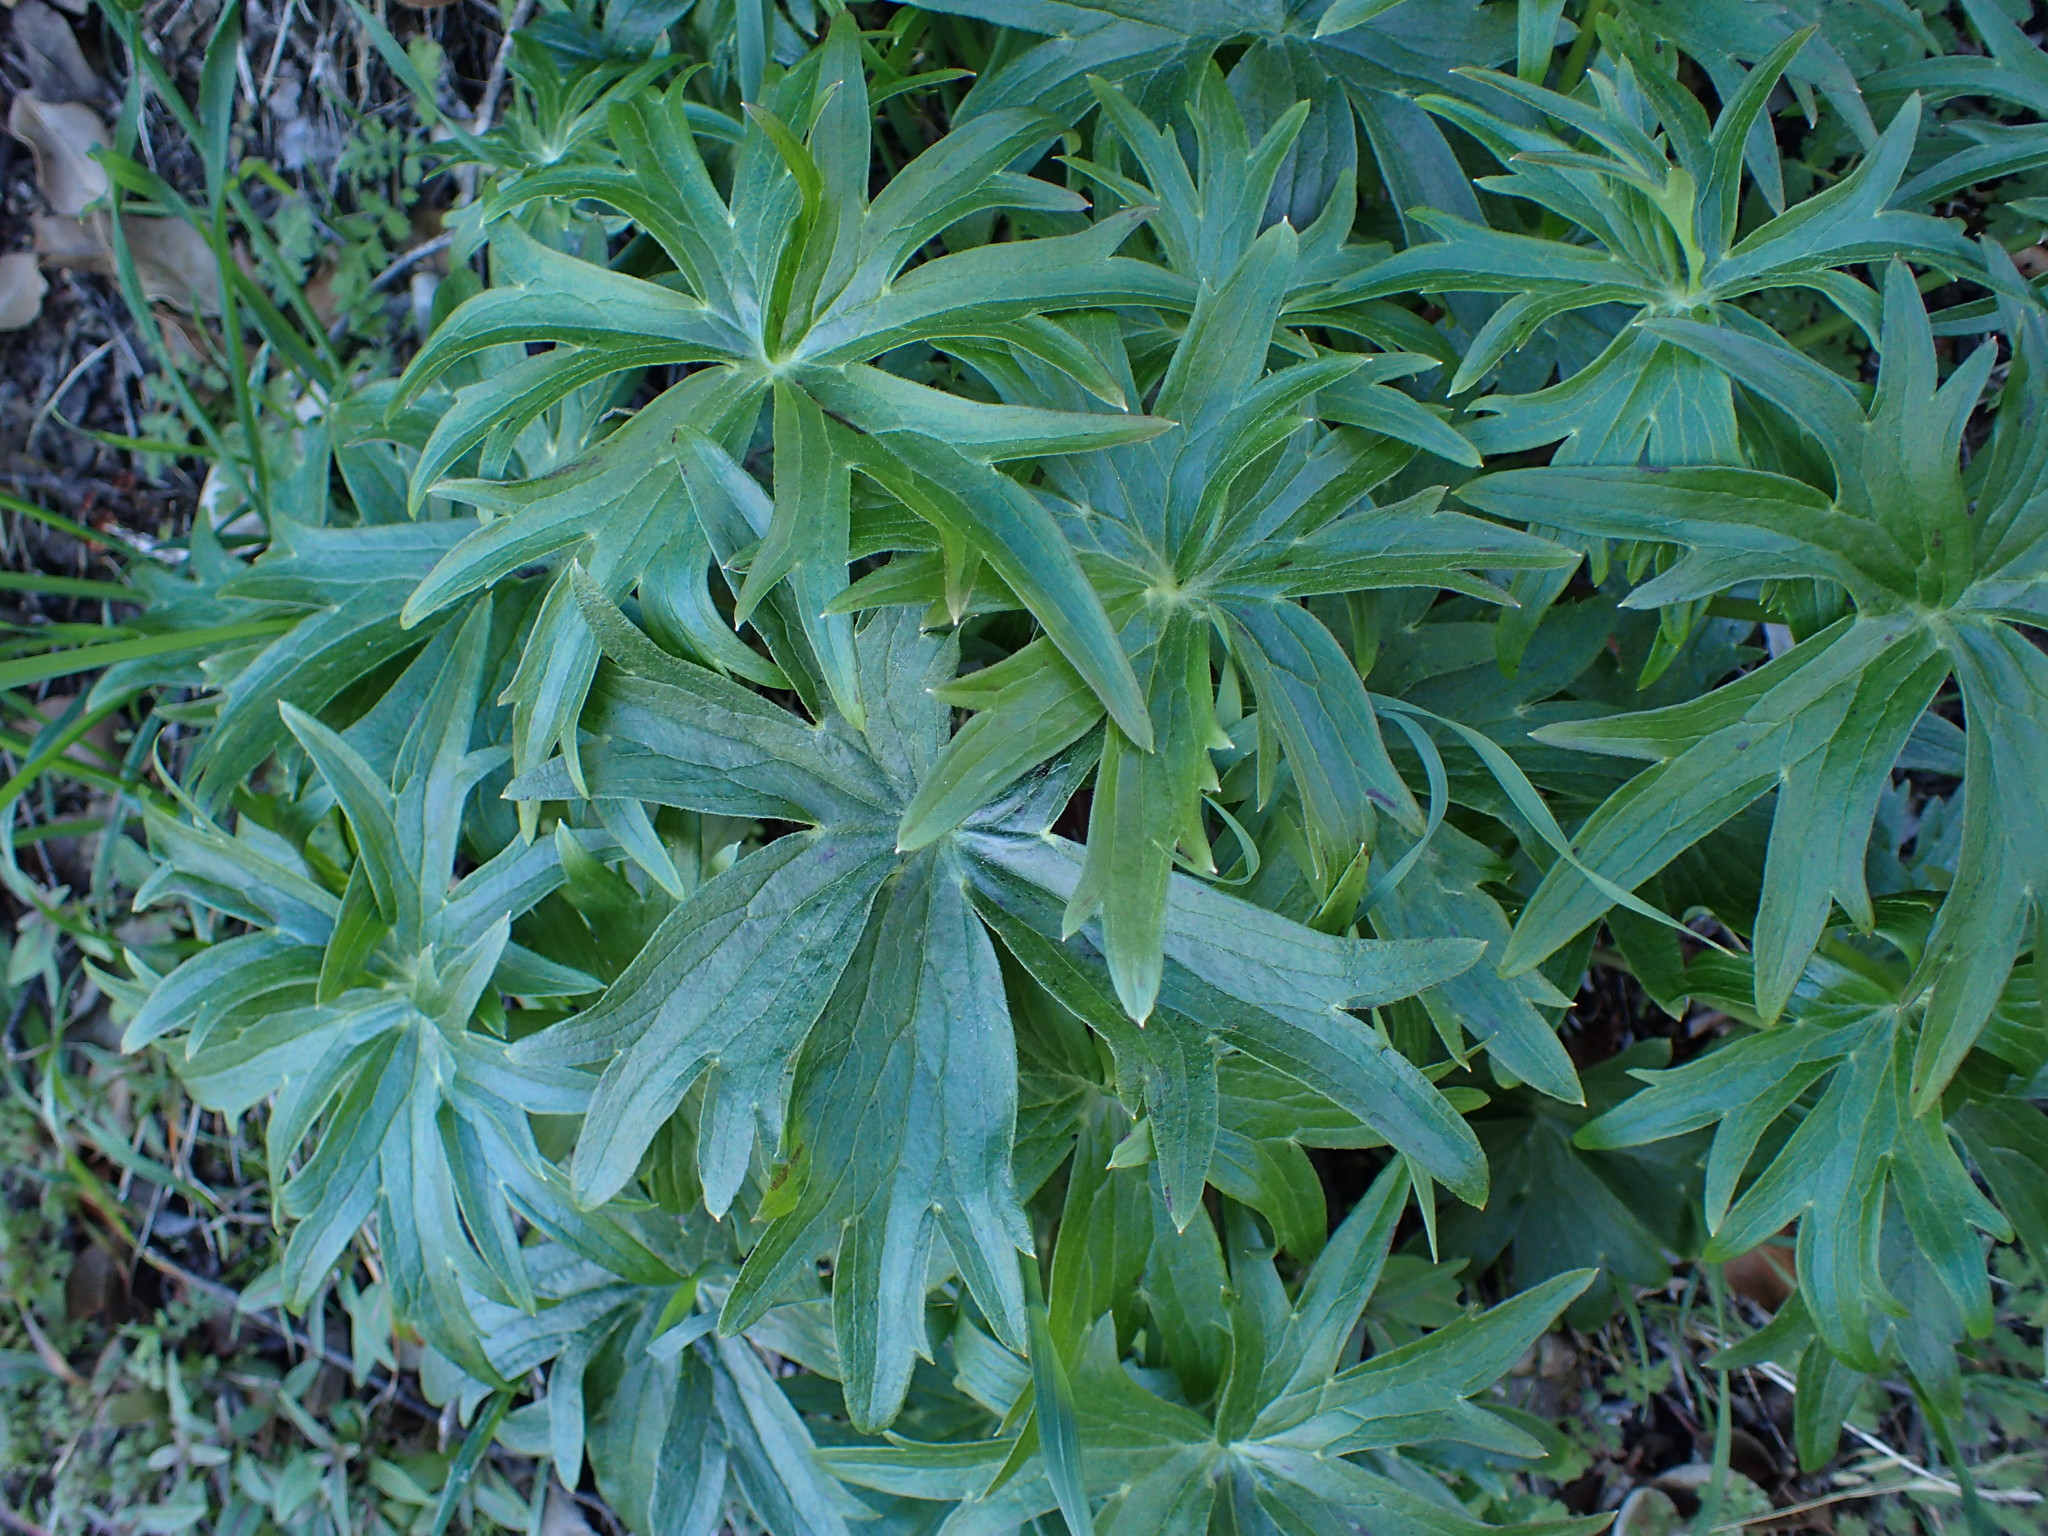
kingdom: Plantae
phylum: Tracheophyta
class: Magnoliopsida
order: Ranunculales
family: Ranunculaceae
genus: Delphinium
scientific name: Delphinium cardinale
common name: Scarlet larkspur
